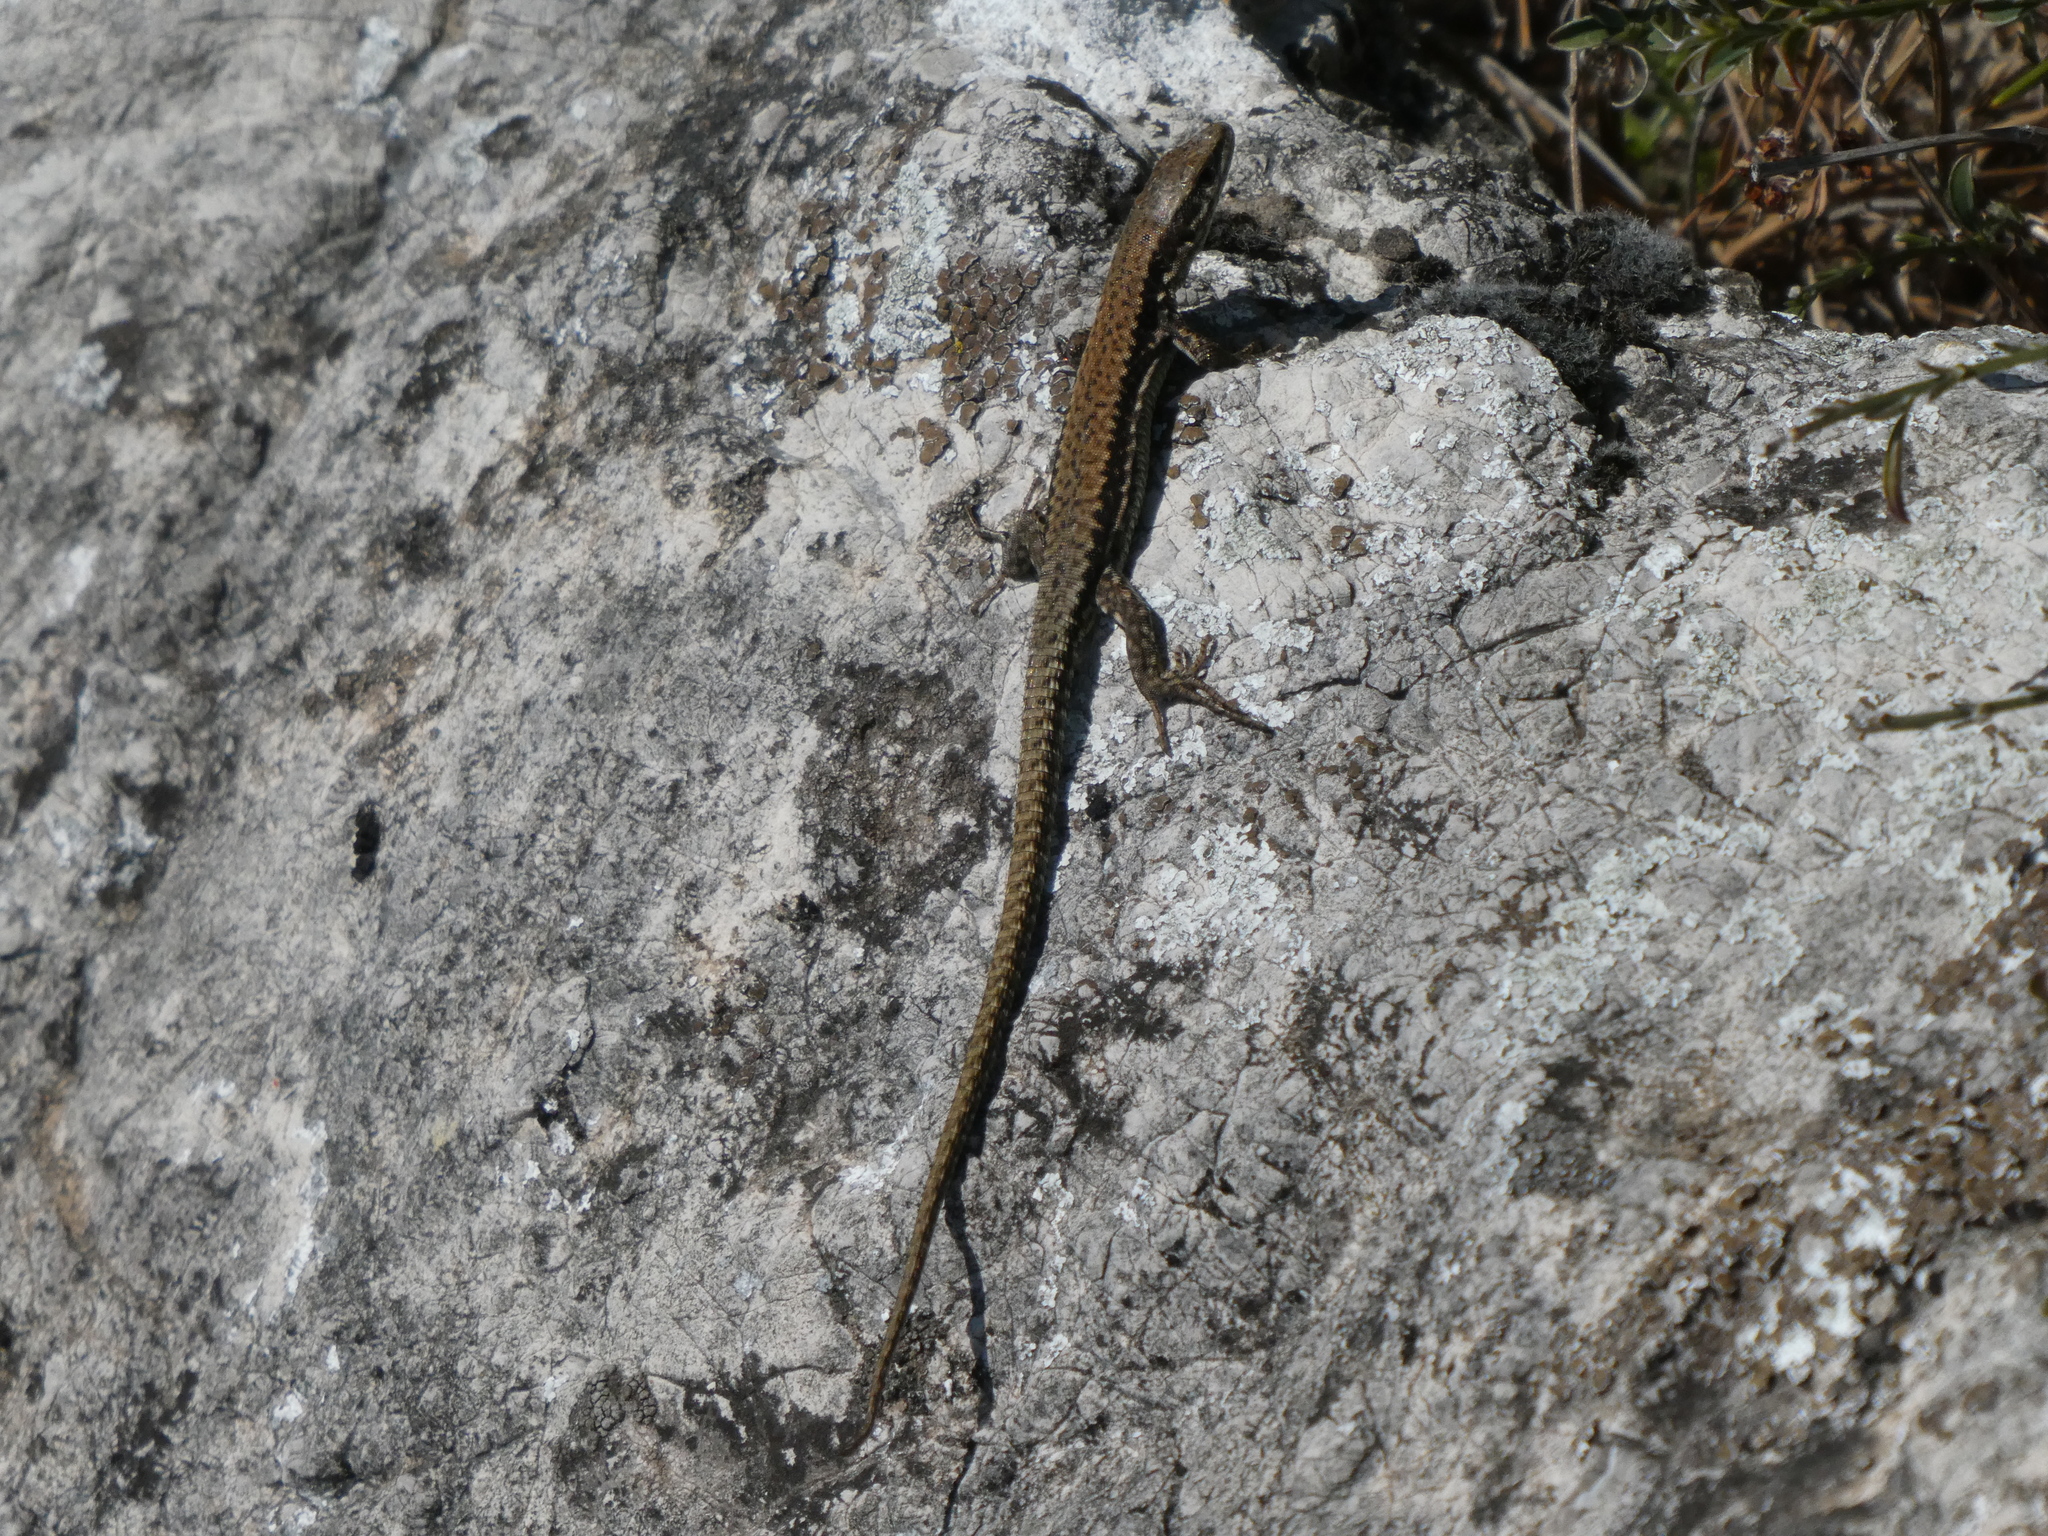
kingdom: Animalia
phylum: Chordata
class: Squamata
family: Lacertidae
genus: Podarcis
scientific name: Podarcis muralis
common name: Common wall lizard
